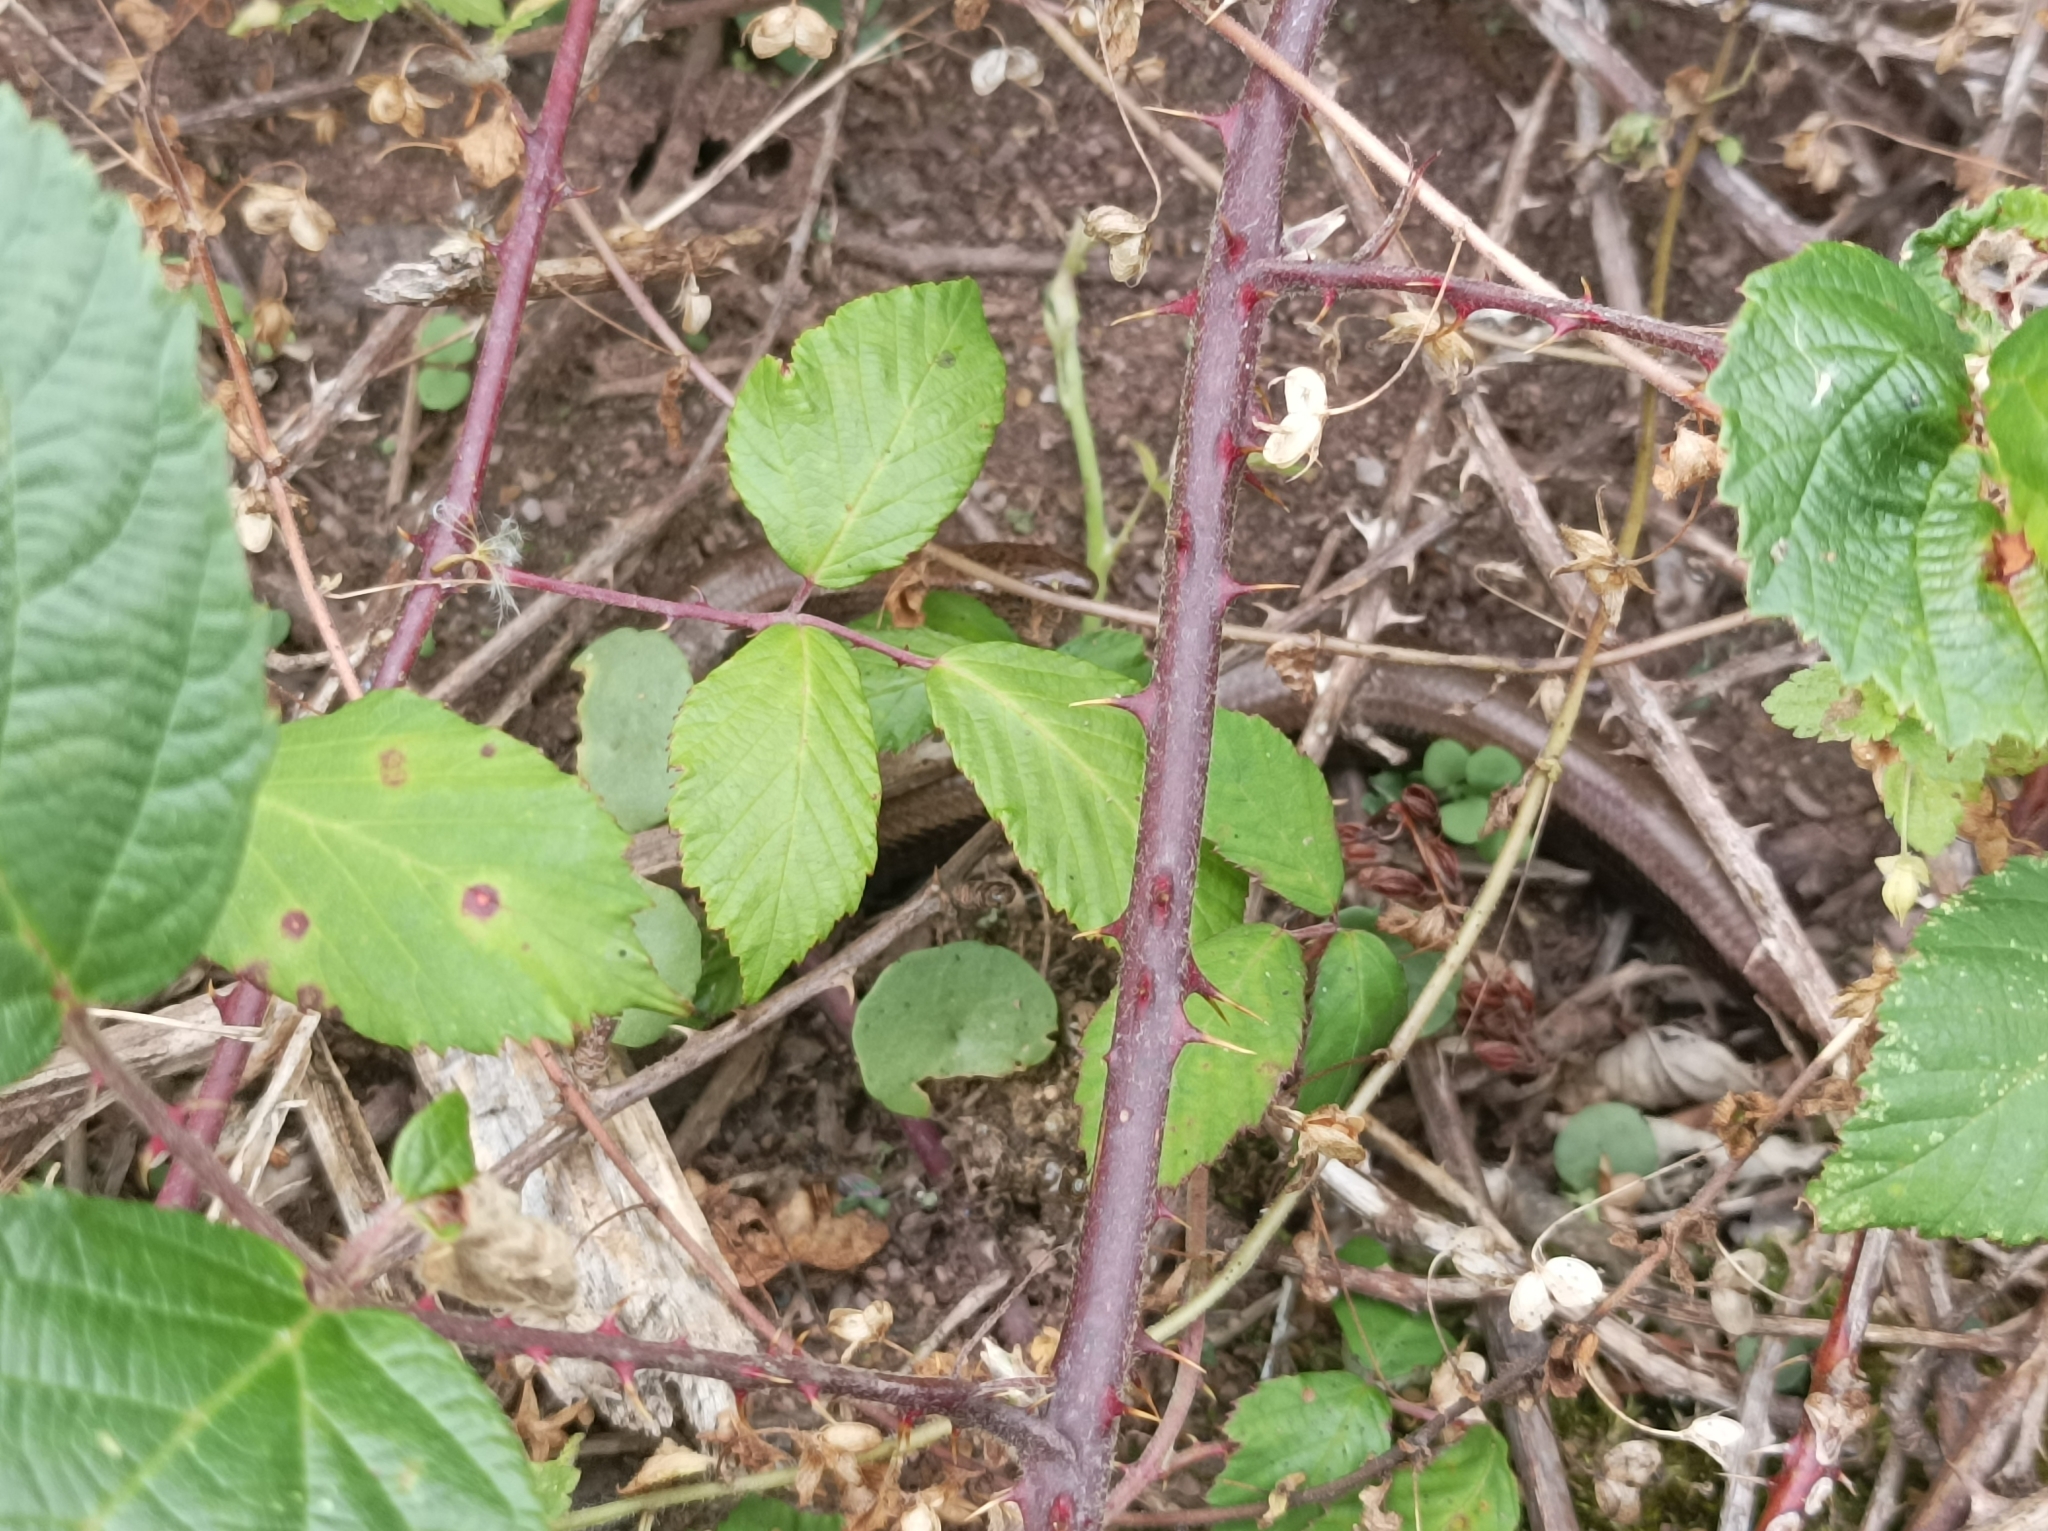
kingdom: Animalia
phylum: Chordata
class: Squamata
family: Anguidae
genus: Anguis
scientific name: Anguis fragilis
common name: Slow worm
